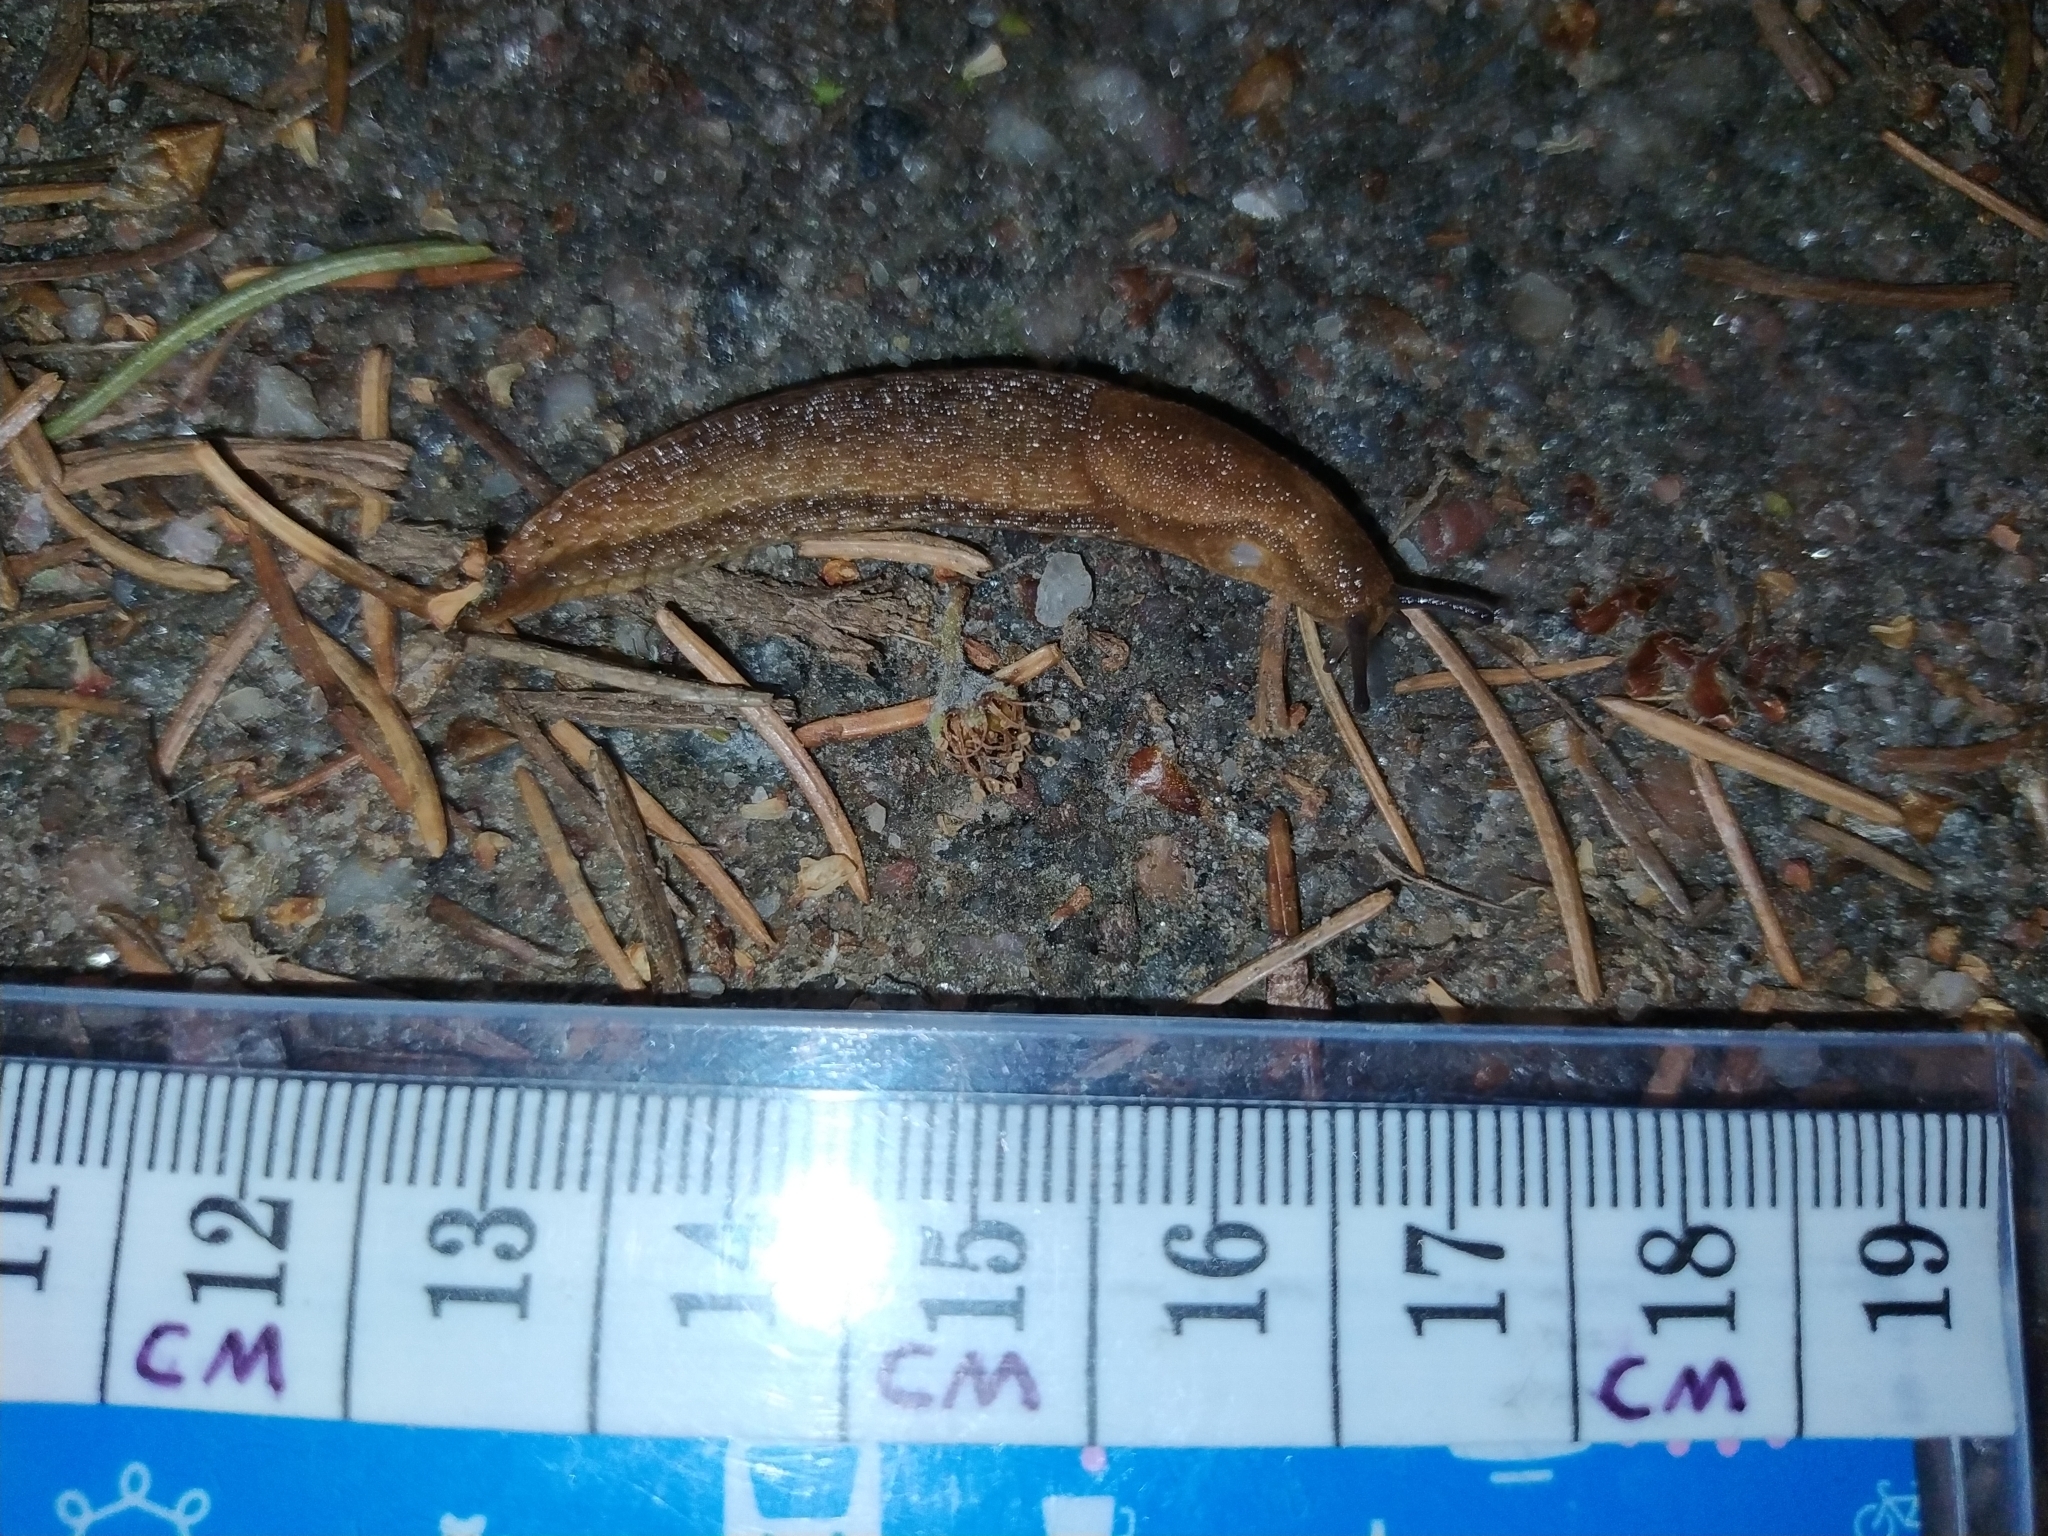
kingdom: Animalia
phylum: Mollusca
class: Gastropoda
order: Stylommatophora
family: Arionidae
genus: Arion
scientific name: Arion fuscus
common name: Northern dusky slug
